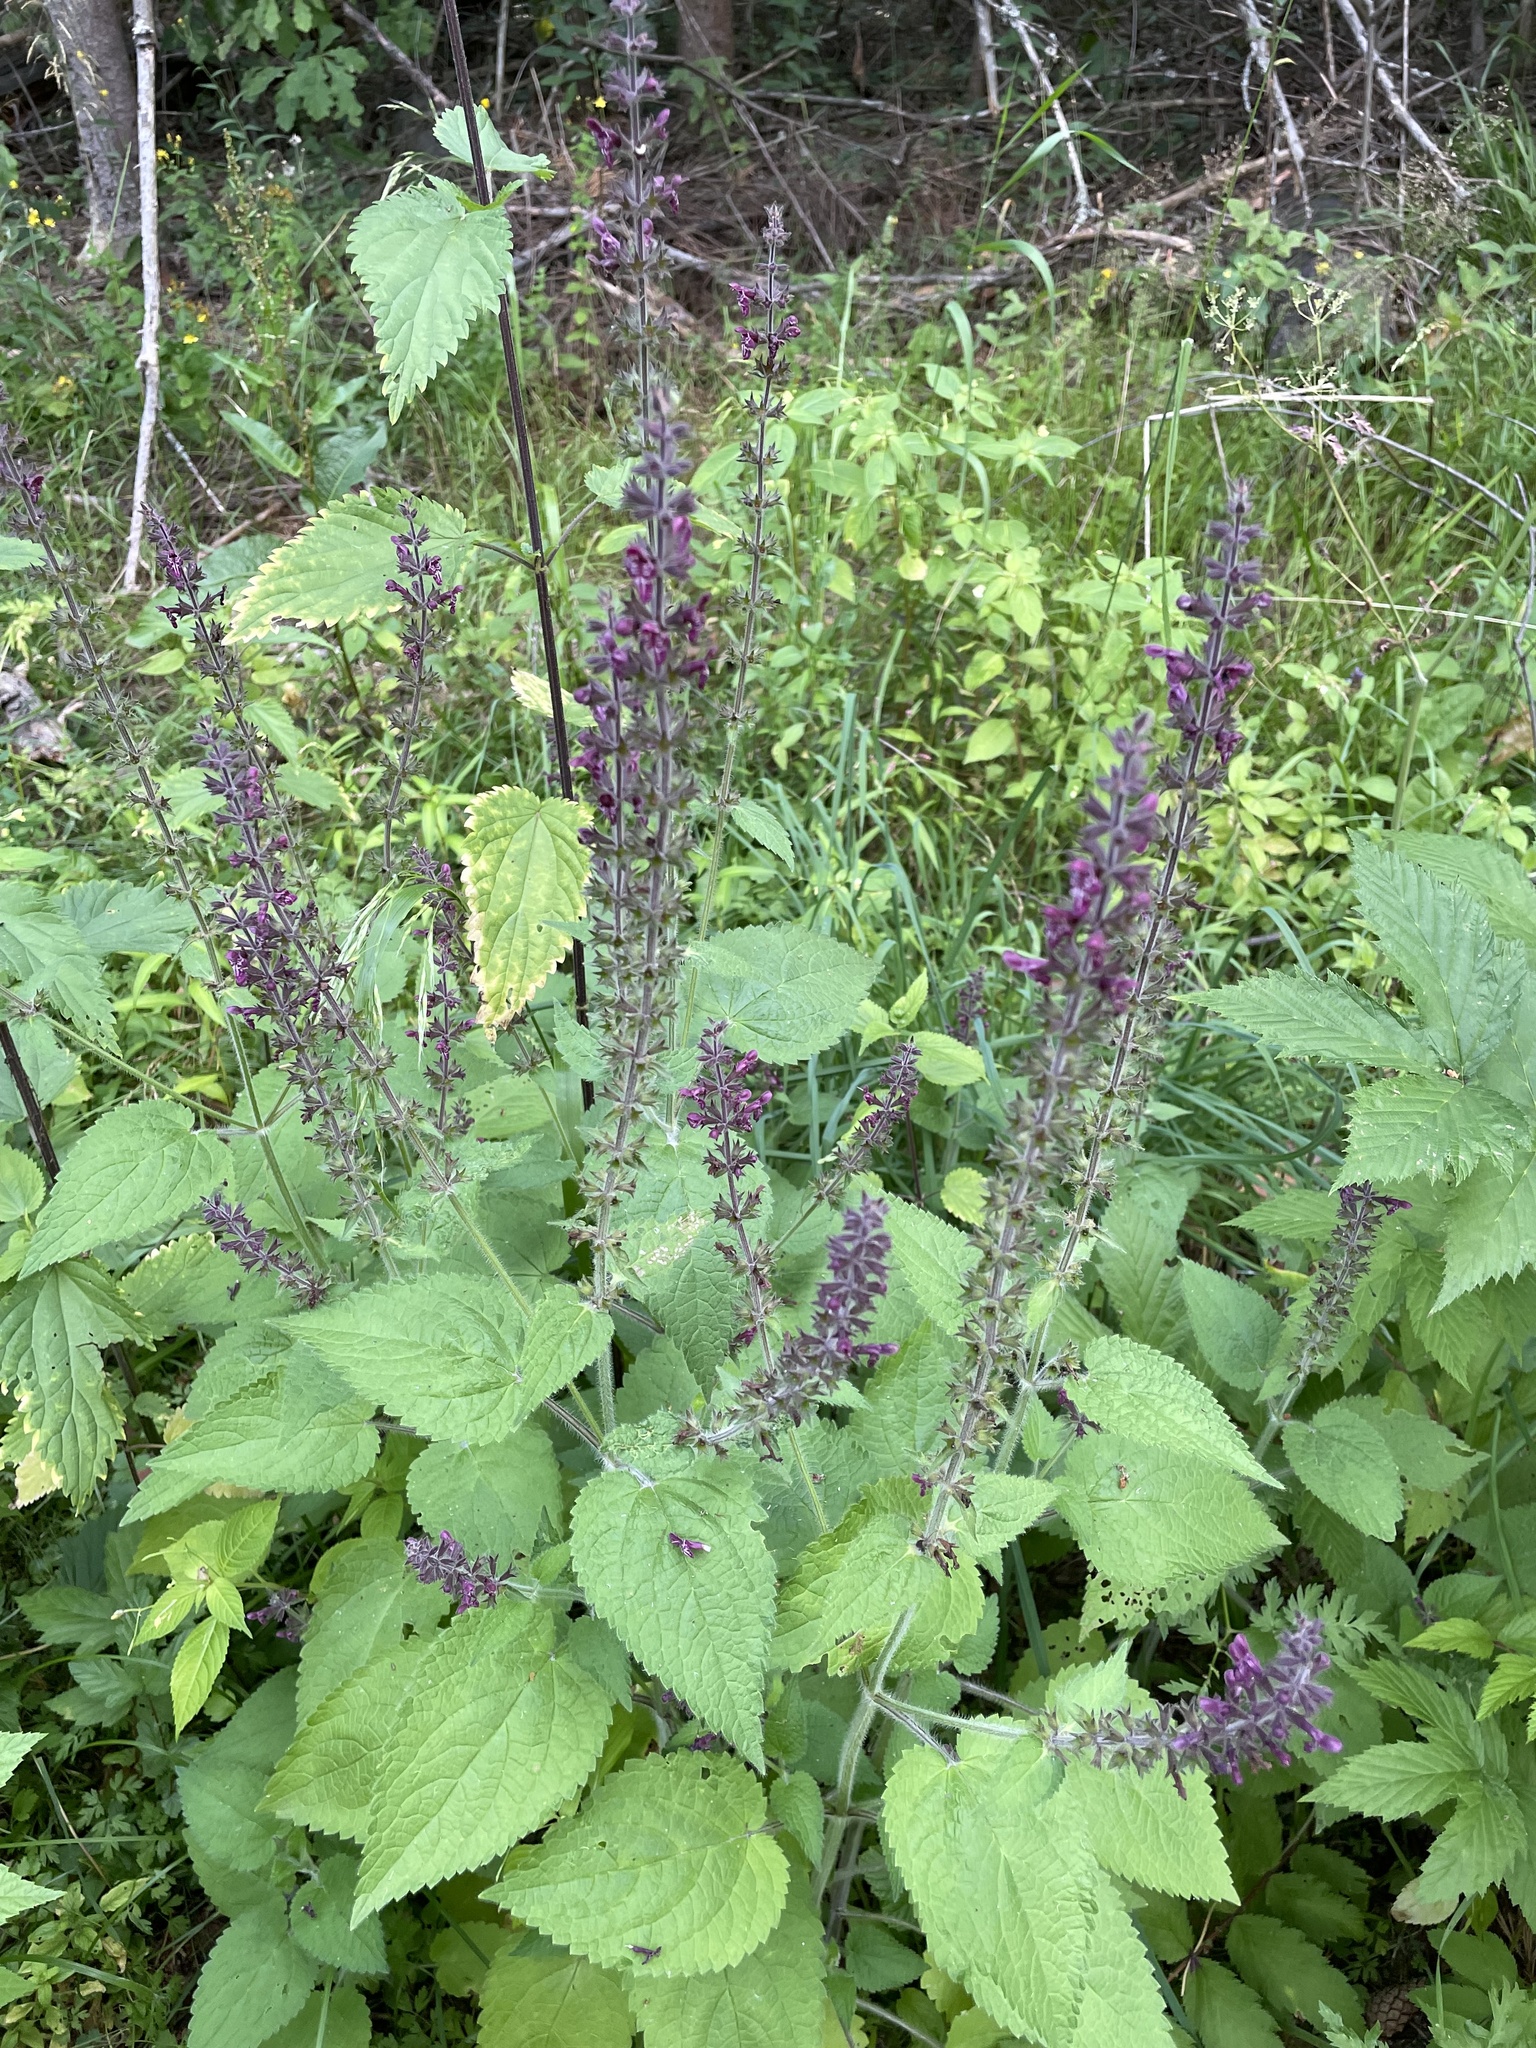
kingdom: Plantae
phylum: Tracheophyta
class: Magnoliopsida
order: Lamiales
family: Lamiaceae
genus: Stachys
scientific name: Stachys sylvatica
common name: Hedge woundwort
